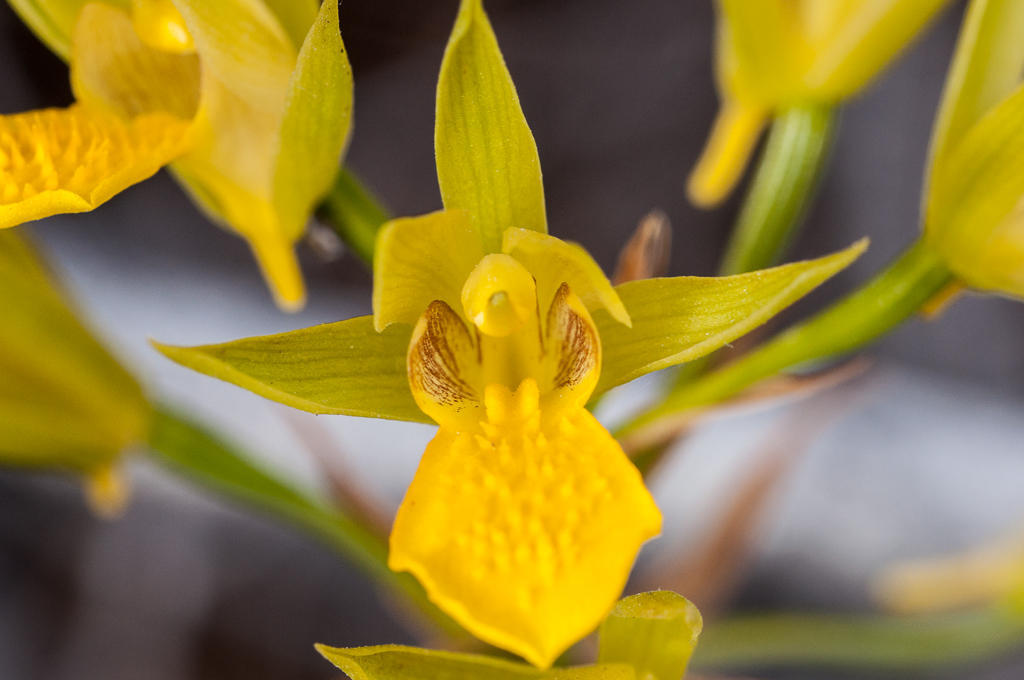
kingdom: Plantae
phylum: Tracheophyta
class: Liliopsida
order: Asparagales
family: Orchidaceae
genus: Eulophia
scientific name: Eulophia litoralis
